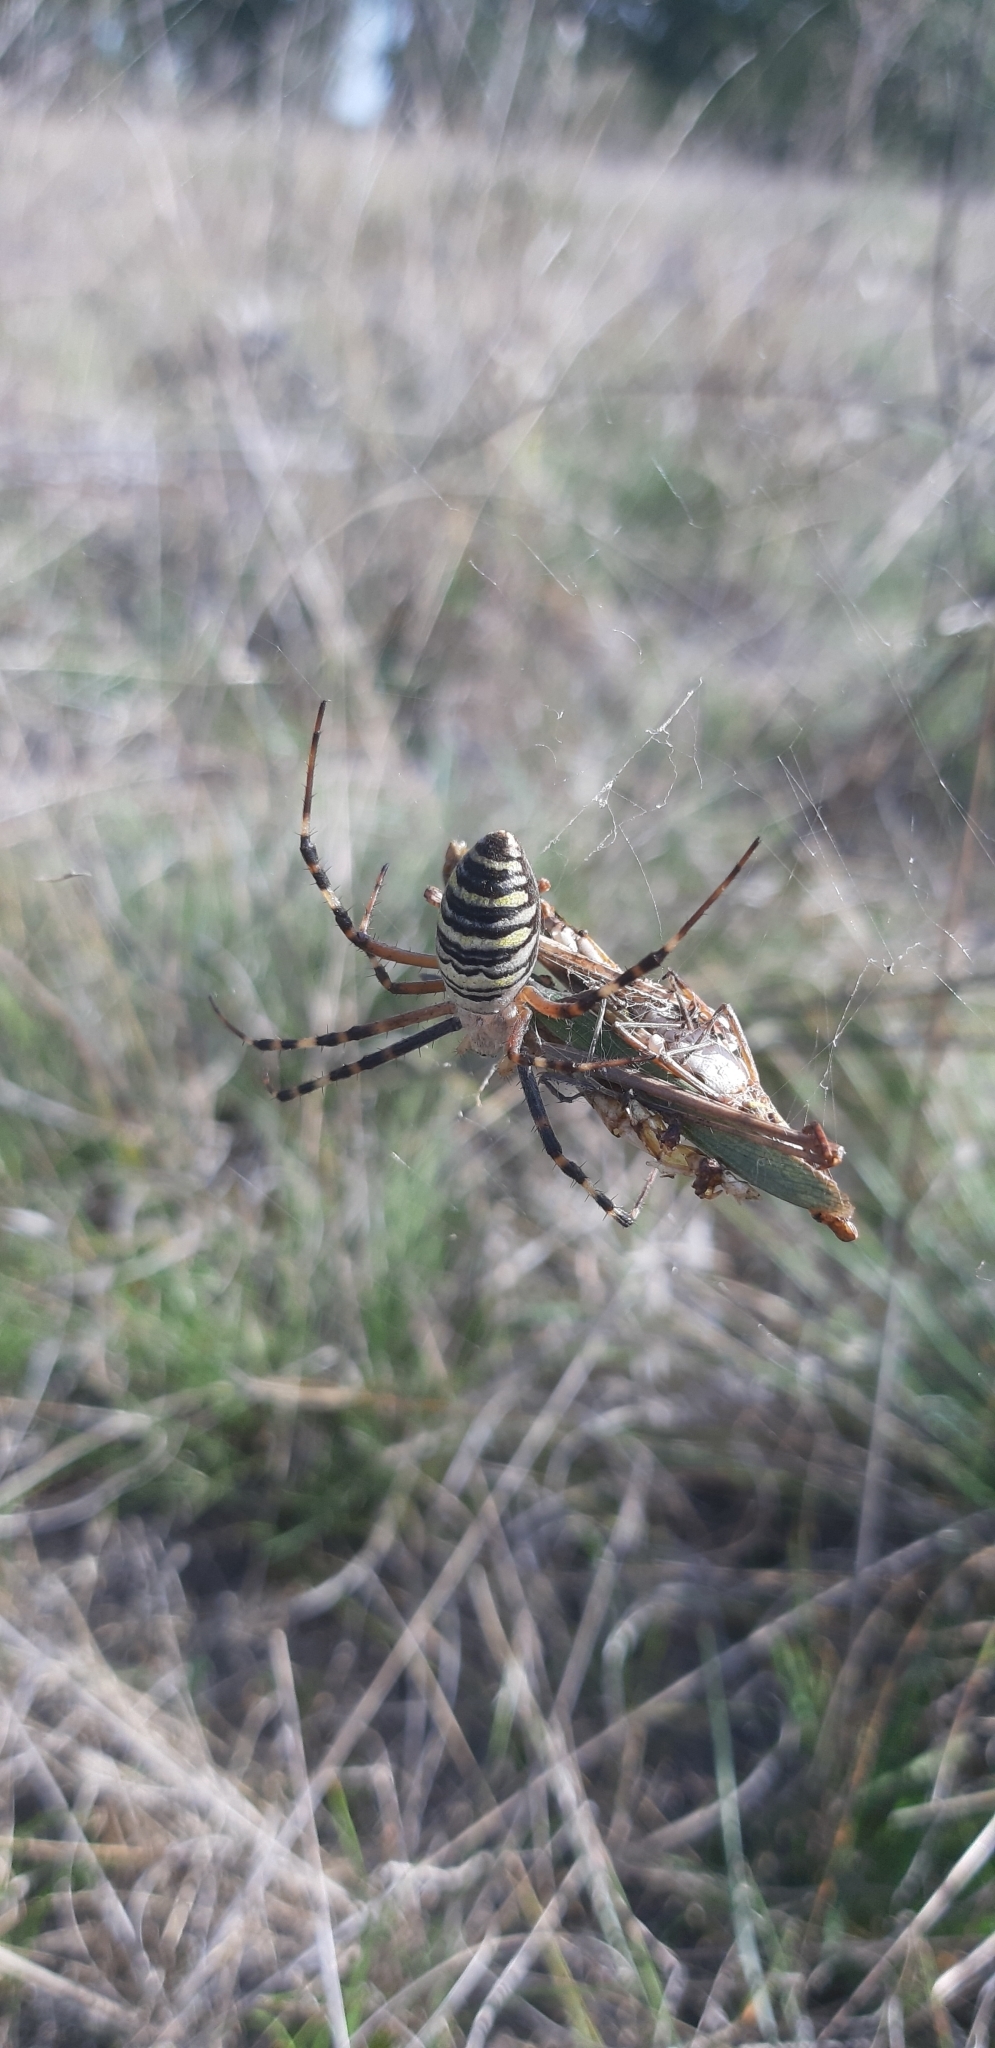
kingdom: Animalia
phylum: Arthropoda
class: Arachnida
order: Araneae
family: Araneidae
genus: Argiope
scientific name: Argiope bruennichi
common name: Wasp spider
